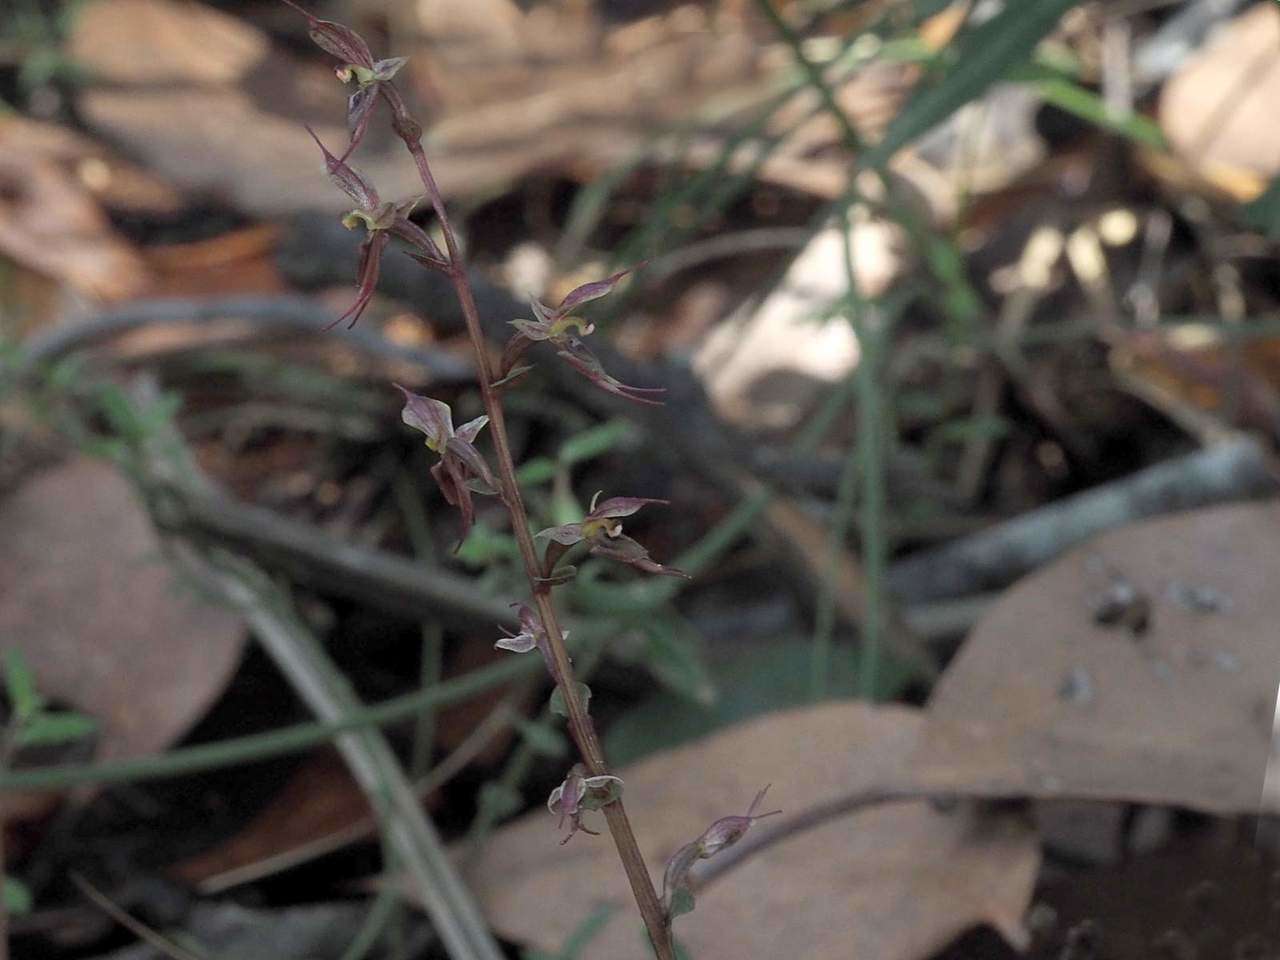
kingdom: Plantae
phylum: Tracheophyta
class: Liliopsida
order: Asparagales
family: Orchidaceae
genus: Acianthus
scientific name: Acianthus pusillus
